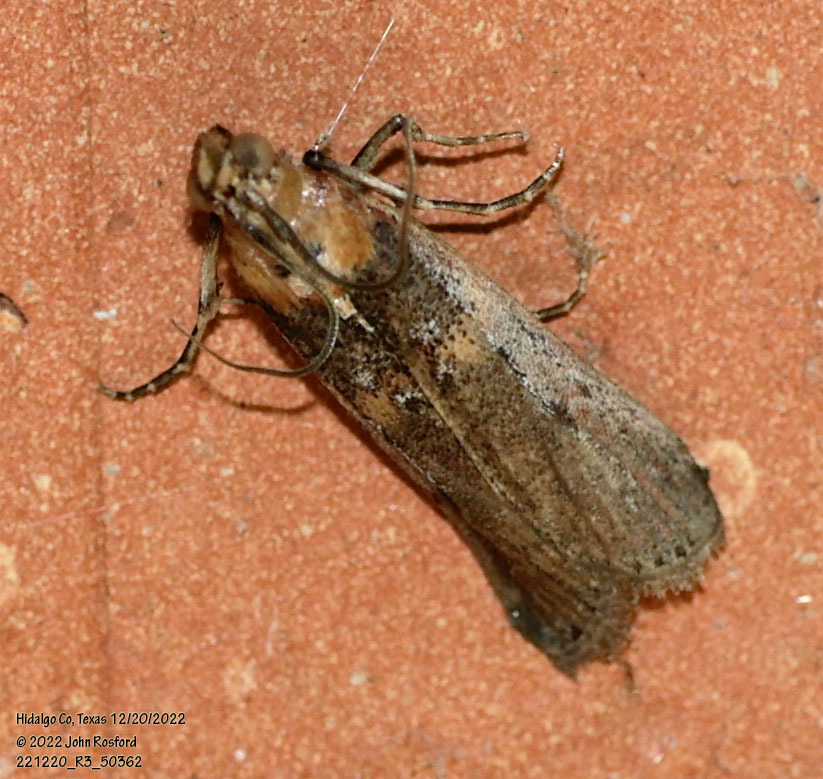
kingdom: Animalia
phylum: Arthropoda
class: Insecta
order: Lepidoptera
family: Pyralidae
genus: Adelphia
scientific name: Adelphia petrella
